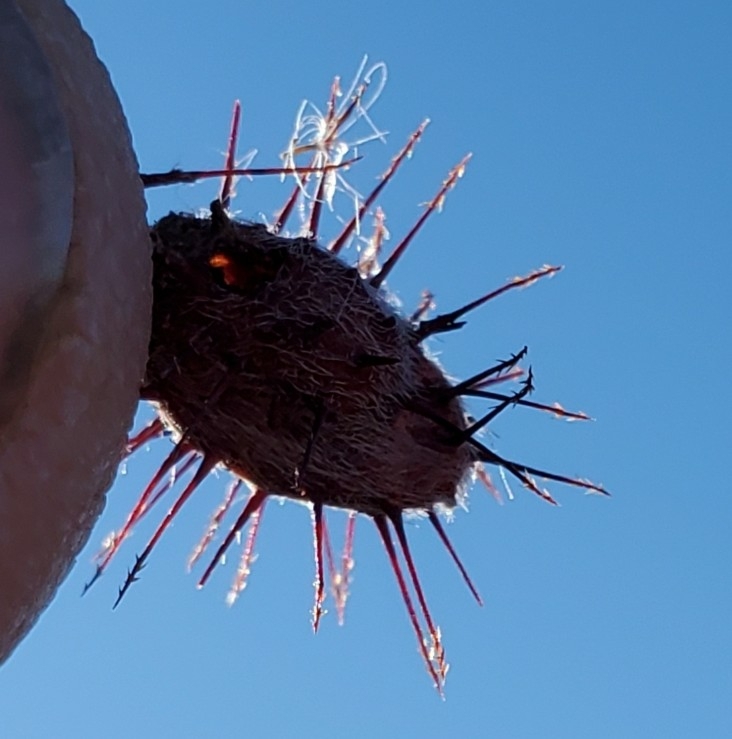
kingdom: Plantae
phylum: Tracheophyta
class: Magnoliopsida
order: Zygophyllales
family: Krameriaceae
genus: Krameria
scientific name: Krameria erecta
